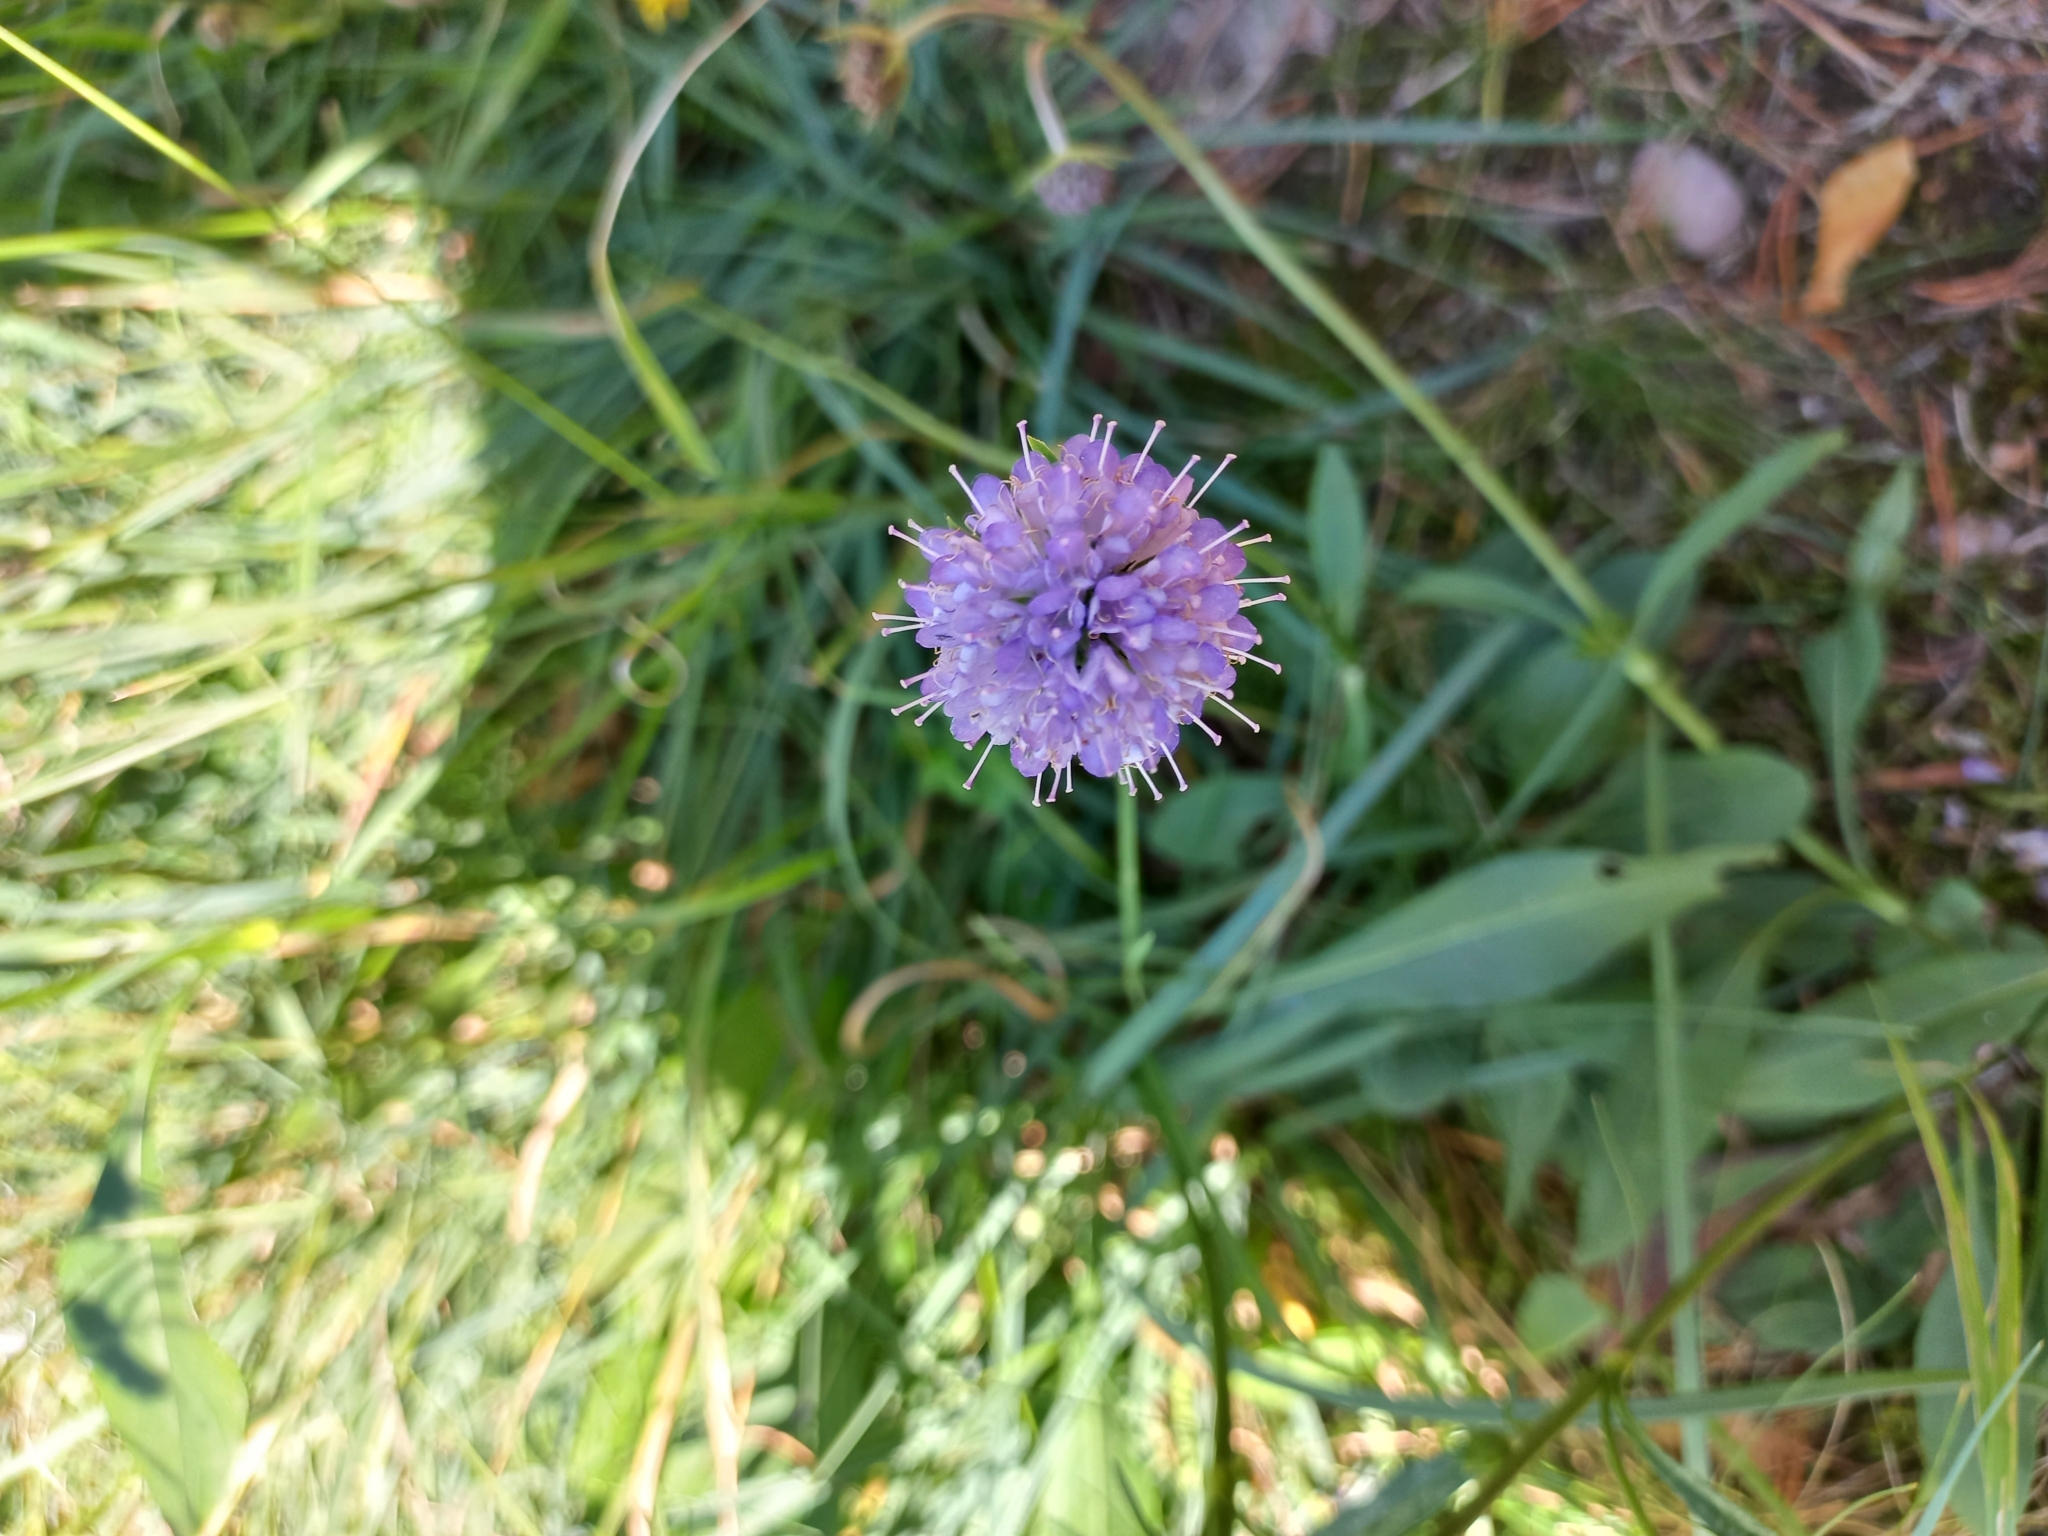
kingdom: Plantae
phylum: Tracheophyta
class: Magnoliopsida
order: Dipsacales
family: Caprifoliaceae
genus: Succisa
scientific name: Succisa pratensis
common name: Devil's-bit
